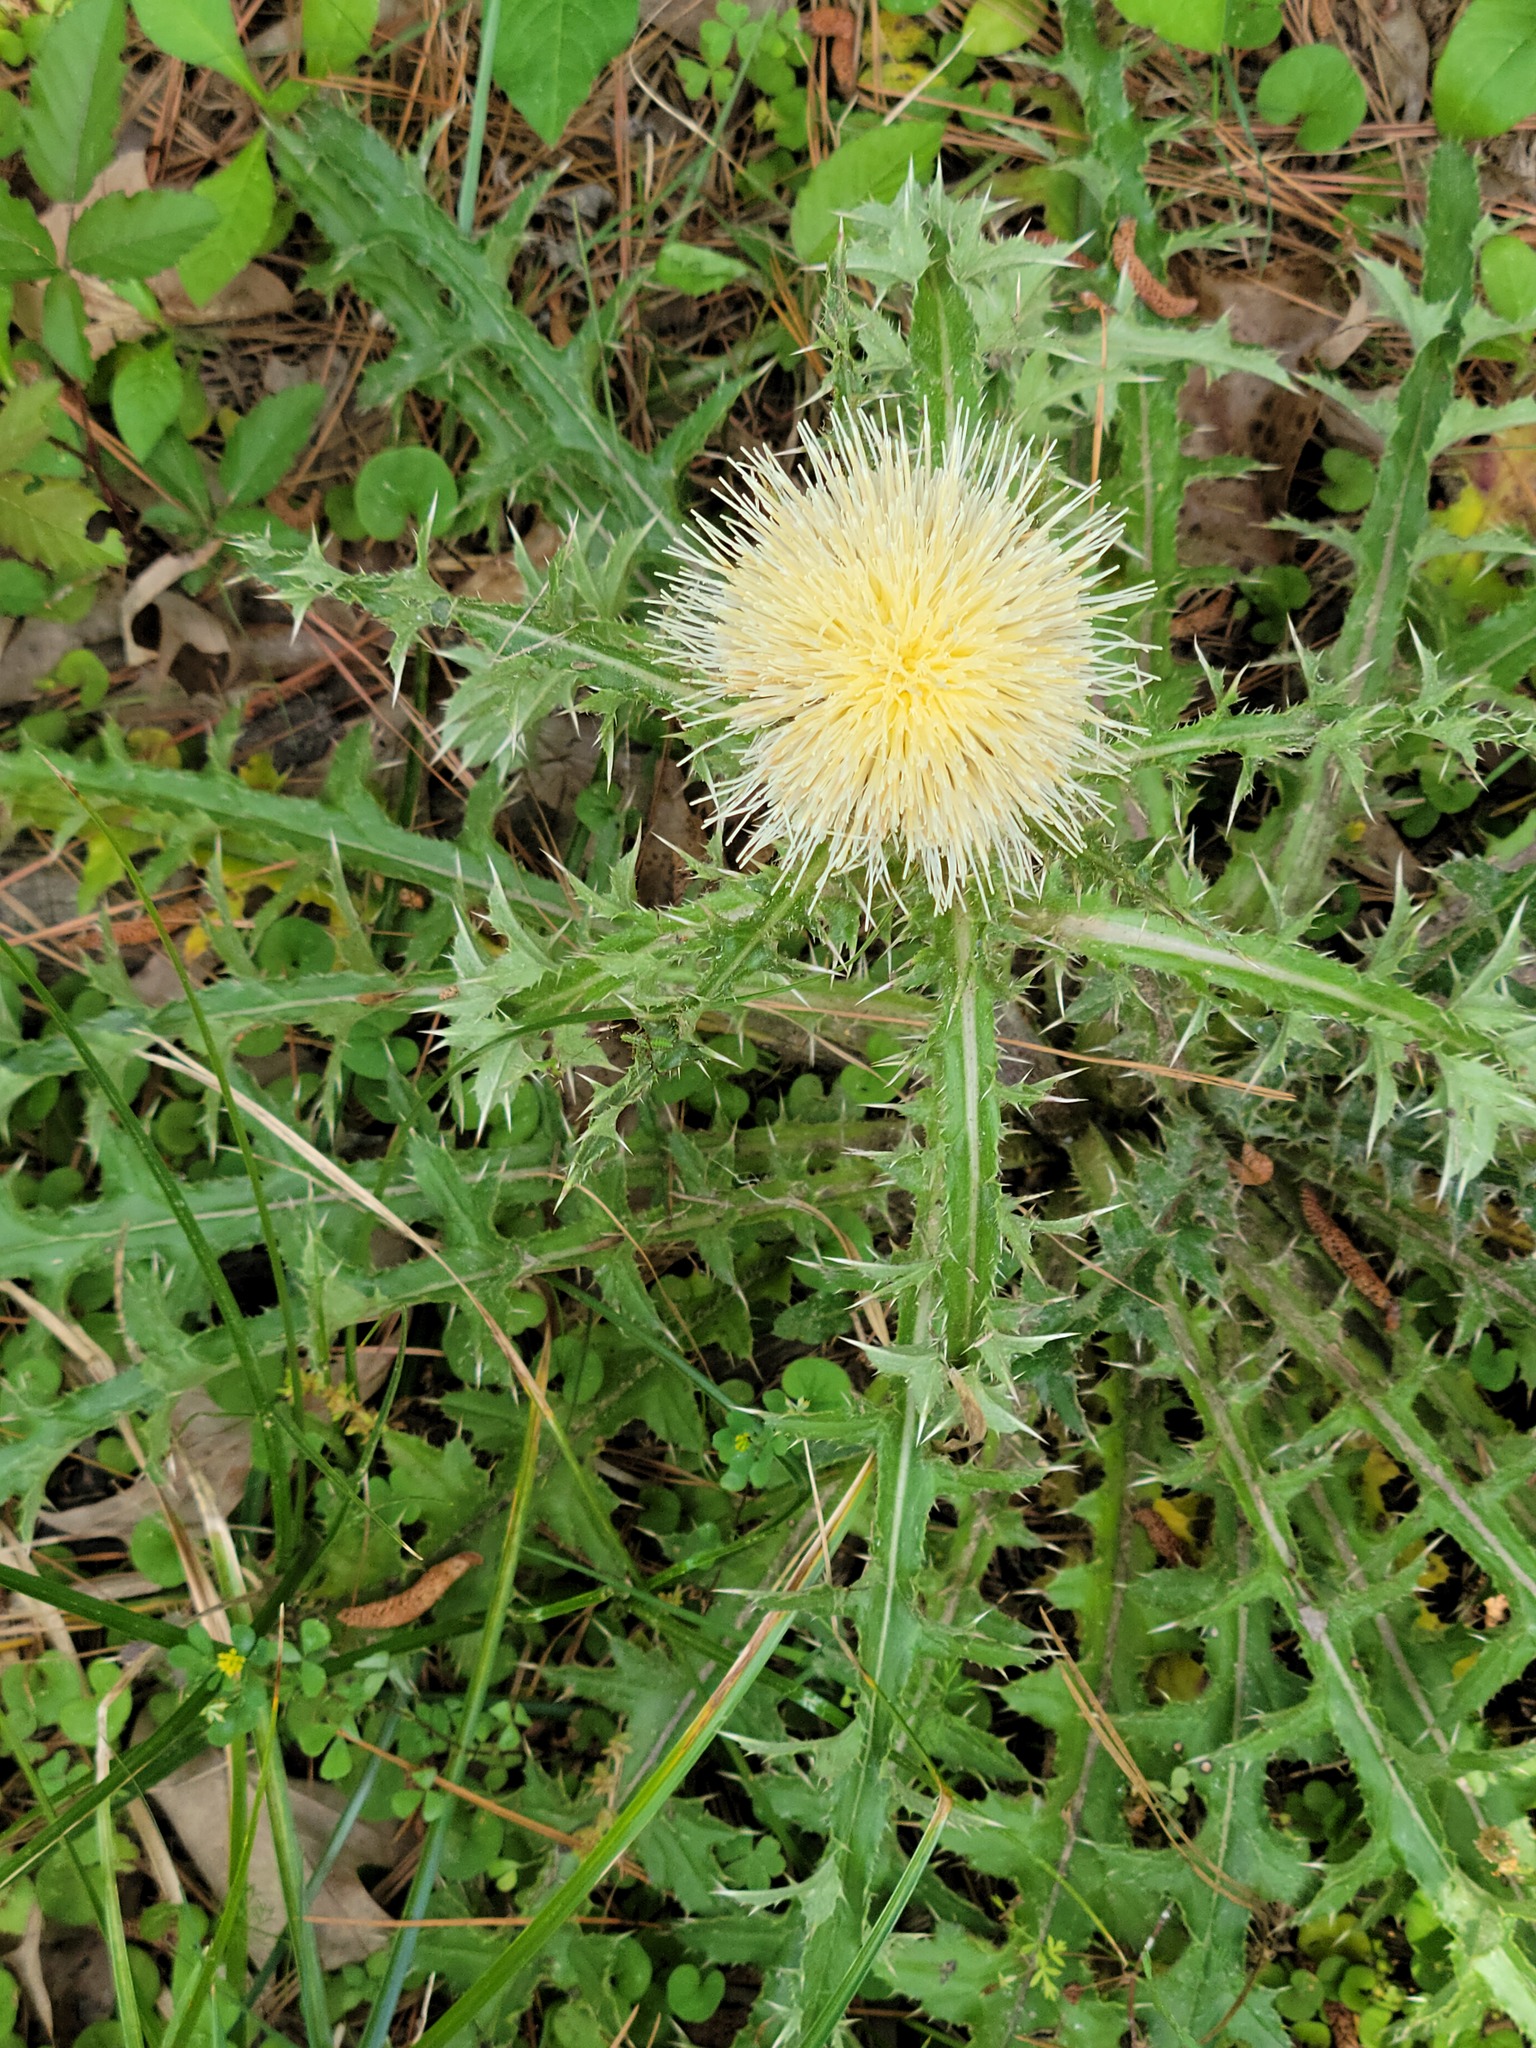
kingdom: Plantae
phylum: Tracheophyta
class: Magnoliopsida
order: Asterales
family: Asteraceae
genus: Cirsium
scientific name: Cirsium horridulum
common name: Bristly thistle
